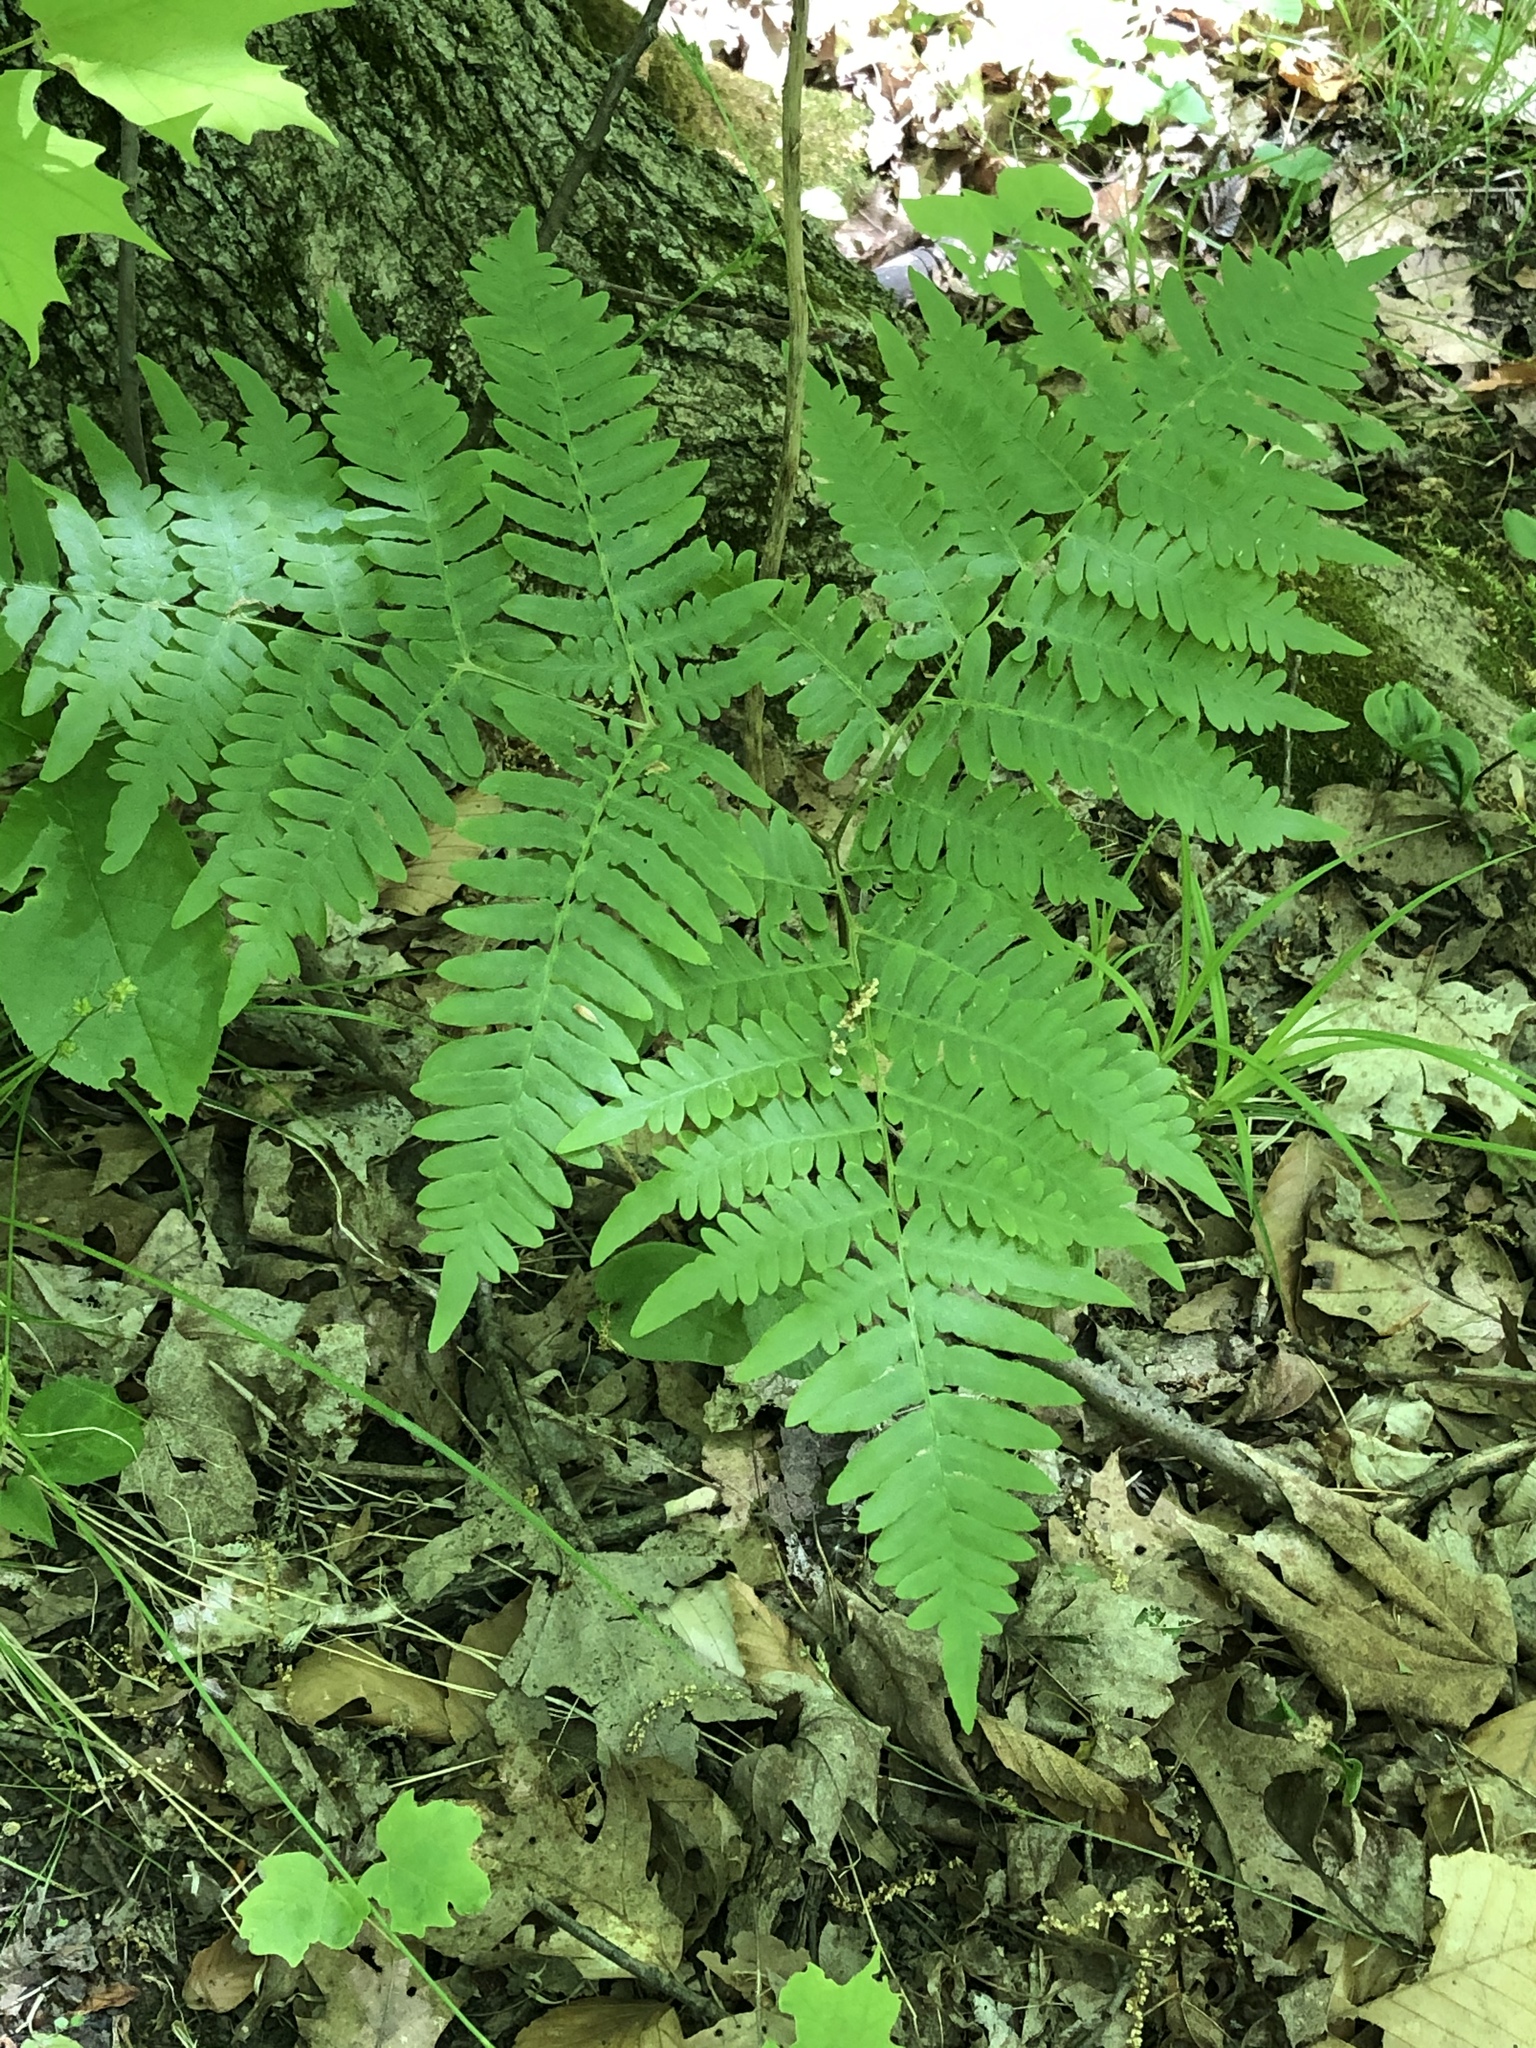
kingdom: Plantae
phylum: Tracheophyta
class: Polypodiopsida
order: Polypodiales
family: Dennstaedtiaceae
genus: Pteridium
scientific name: Pteridium aquilinum
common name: Bracken
